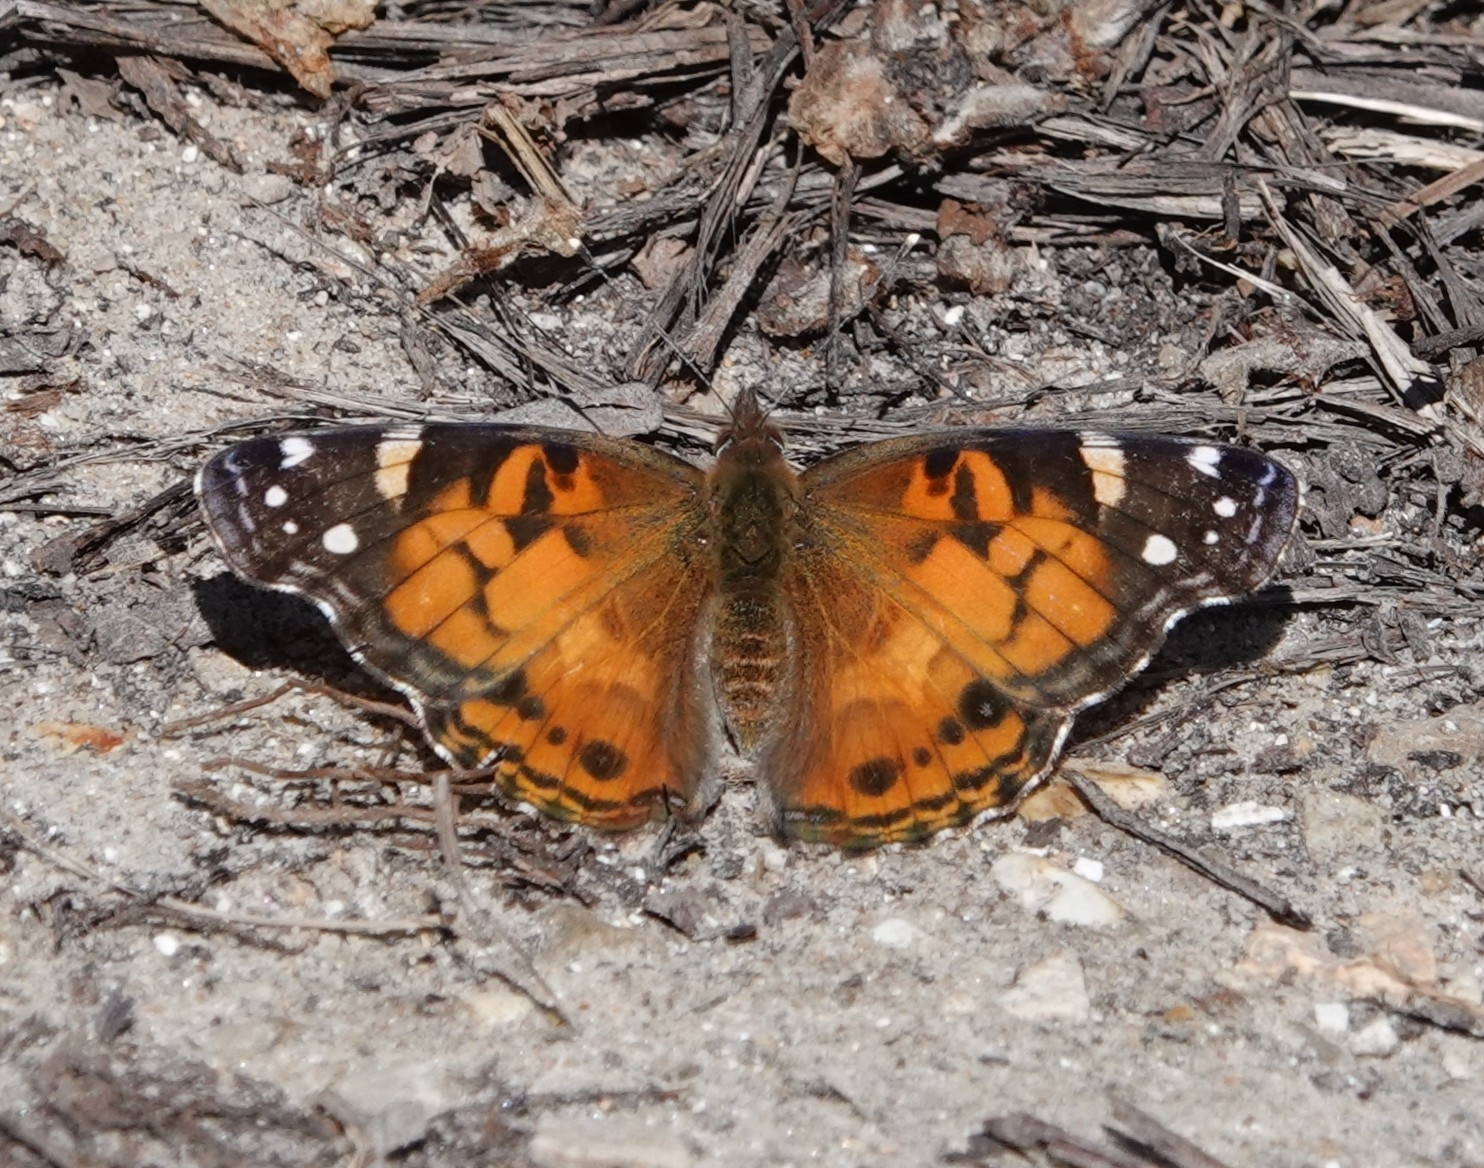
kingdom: Animalia
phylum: Arthropoda
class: Insecta
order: Lepidoptera
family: Nymphalidae
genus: Vanessa
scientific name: Vanessa virginiensis
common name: American lady
